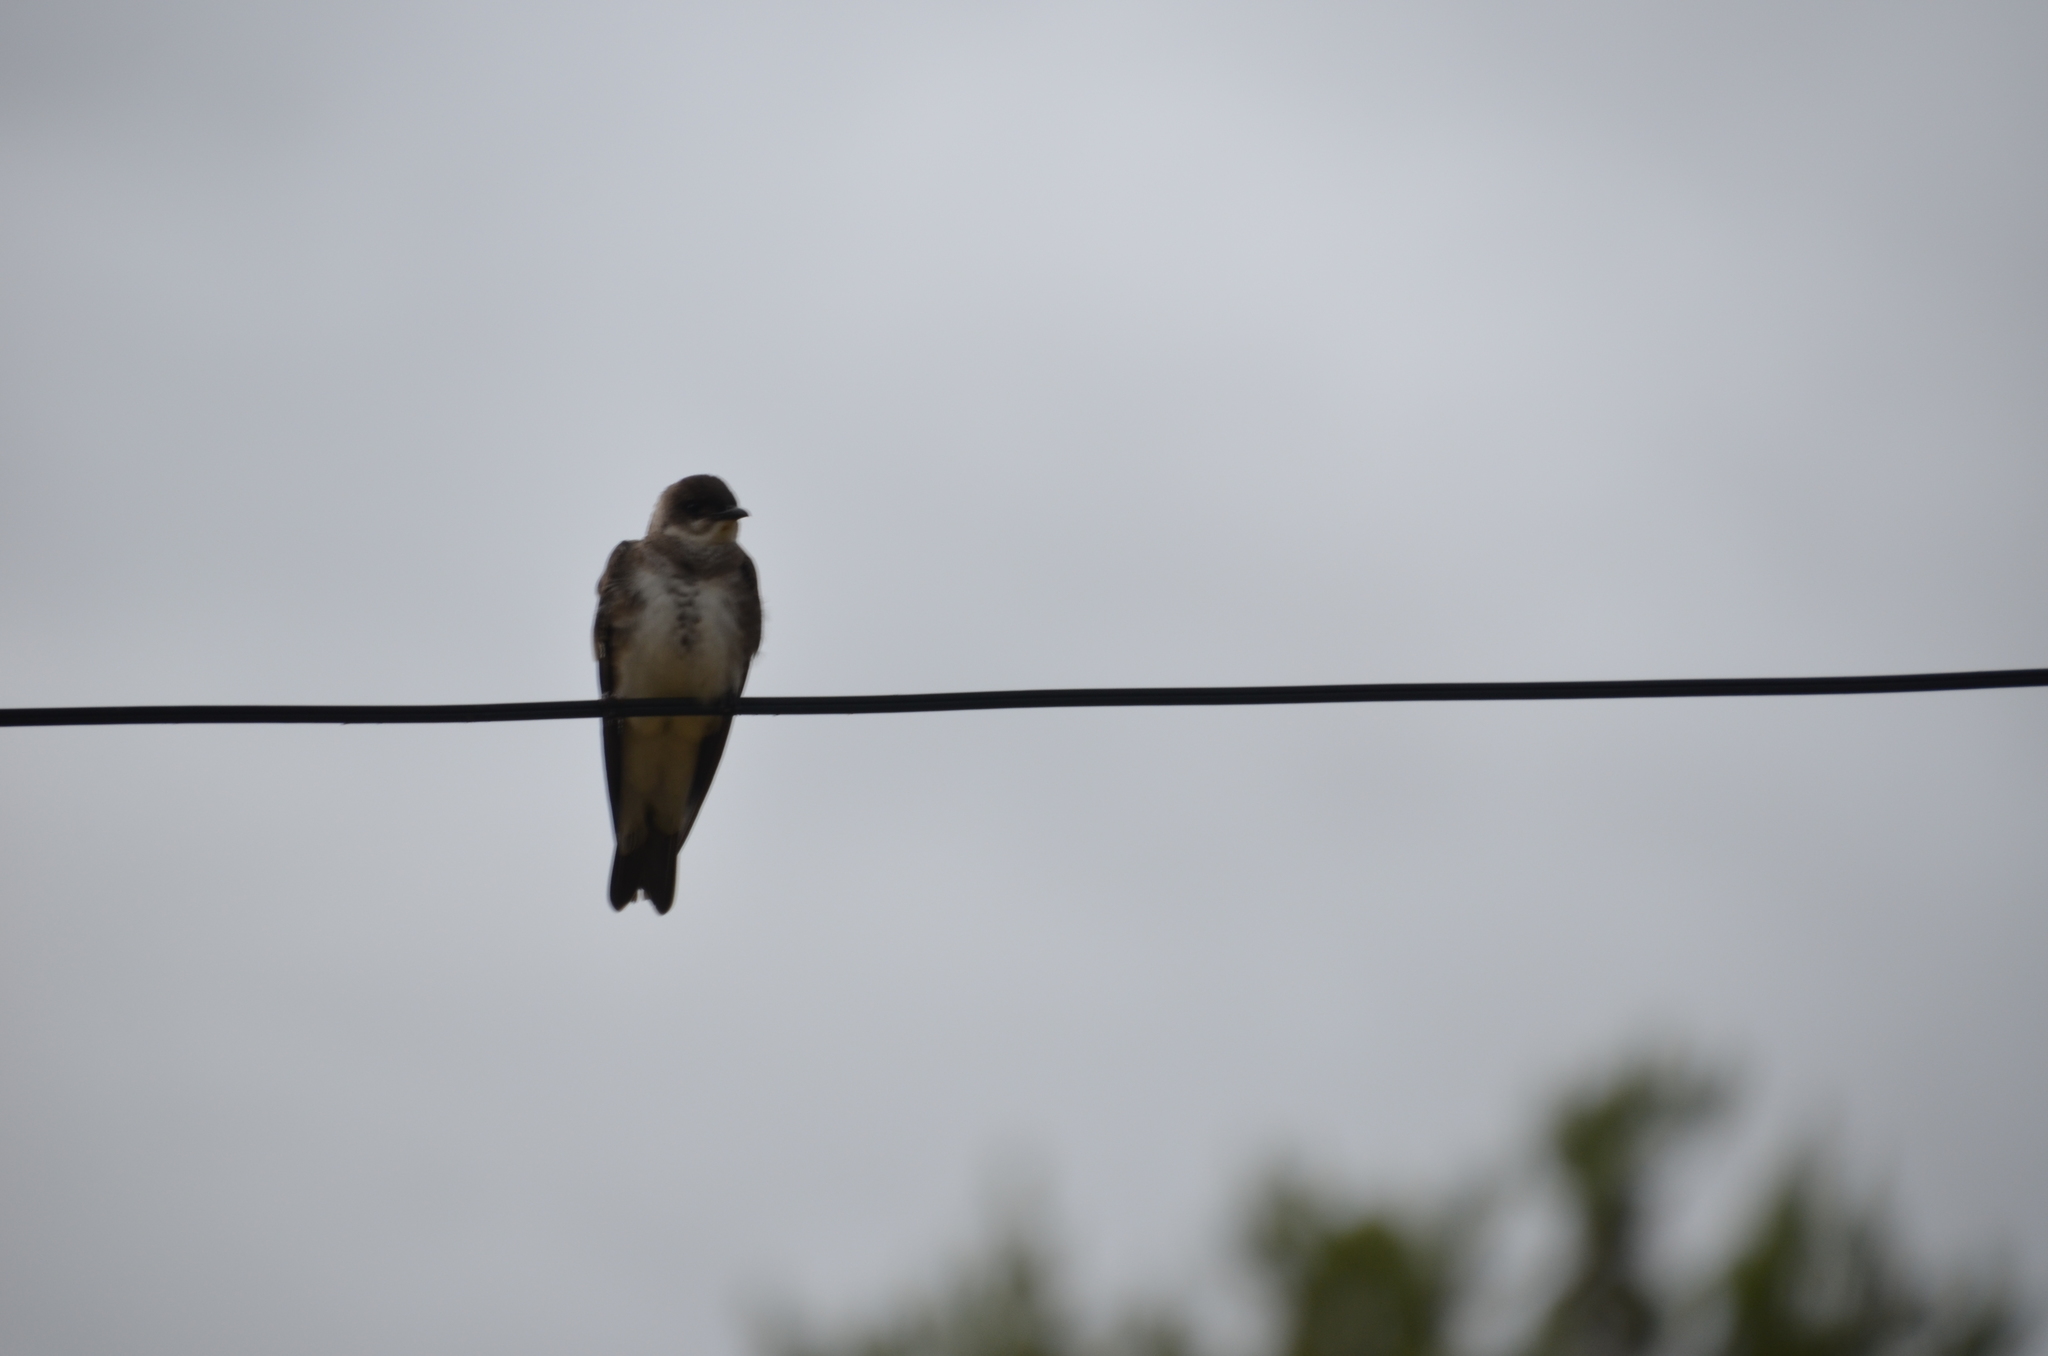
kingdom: Animalia
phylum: Chordata
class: Aves
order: Passeriformes
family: Hirundinidae
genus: Progne
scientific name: Progne tapera
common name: Brown-chested martin
